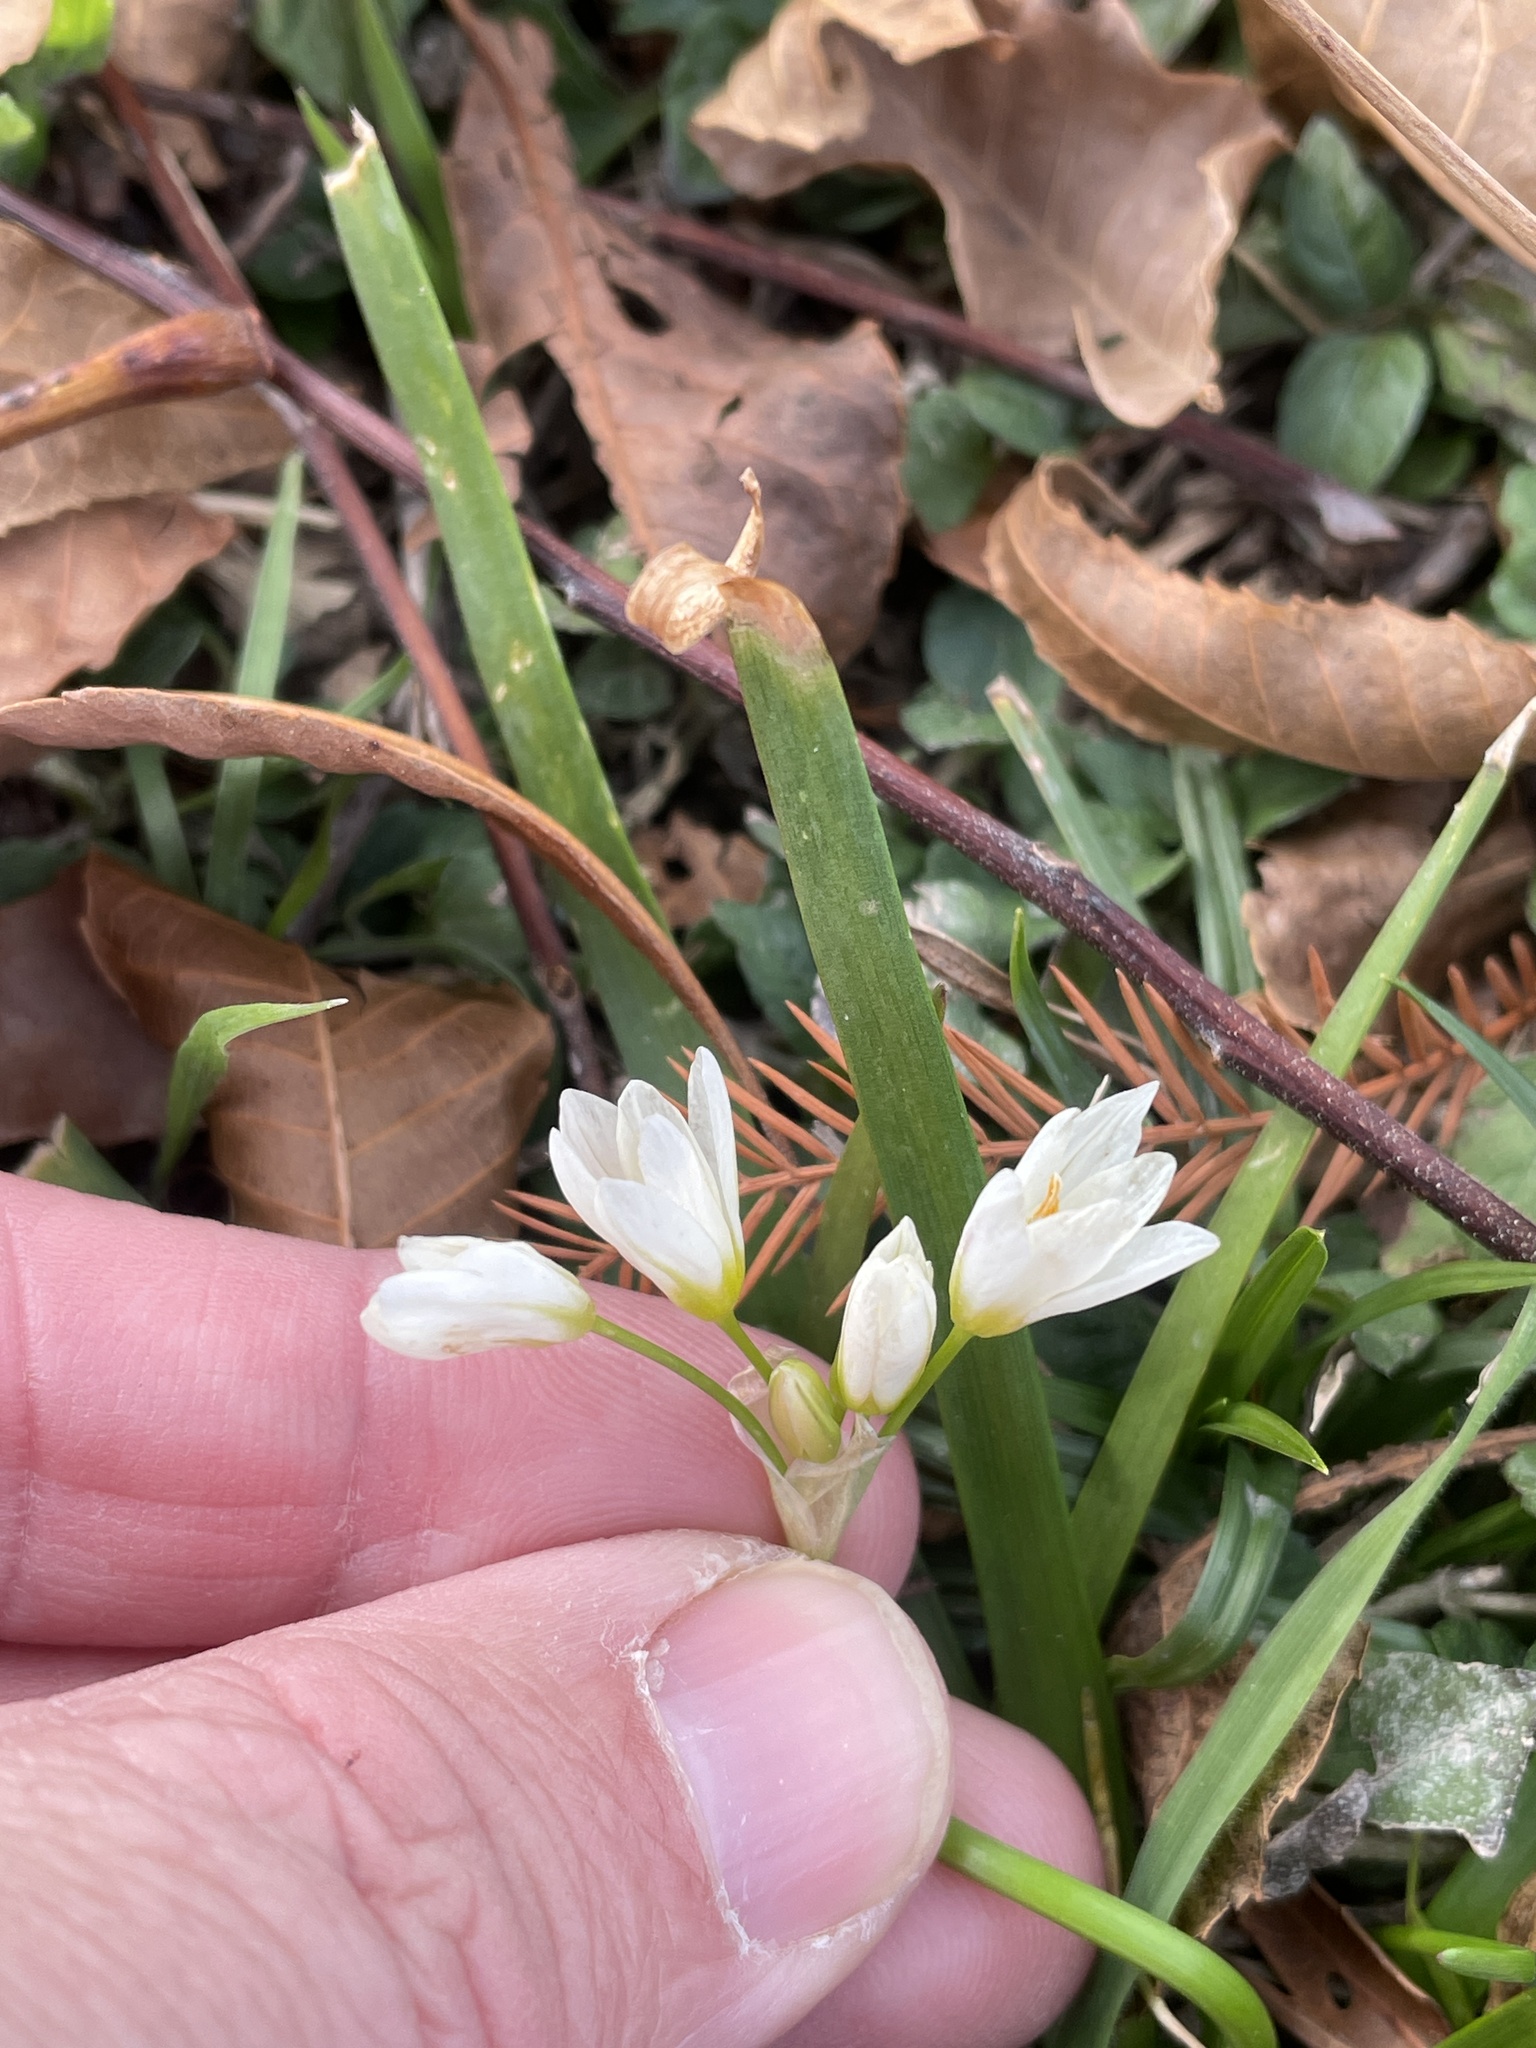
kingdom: Plantae
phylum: Tracheophyta
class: Liliopsida
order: Asparagales
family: Amaryllidaceae
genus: Nothoscordum
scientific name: Nothoscordum bivalve
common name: Crow-poison
